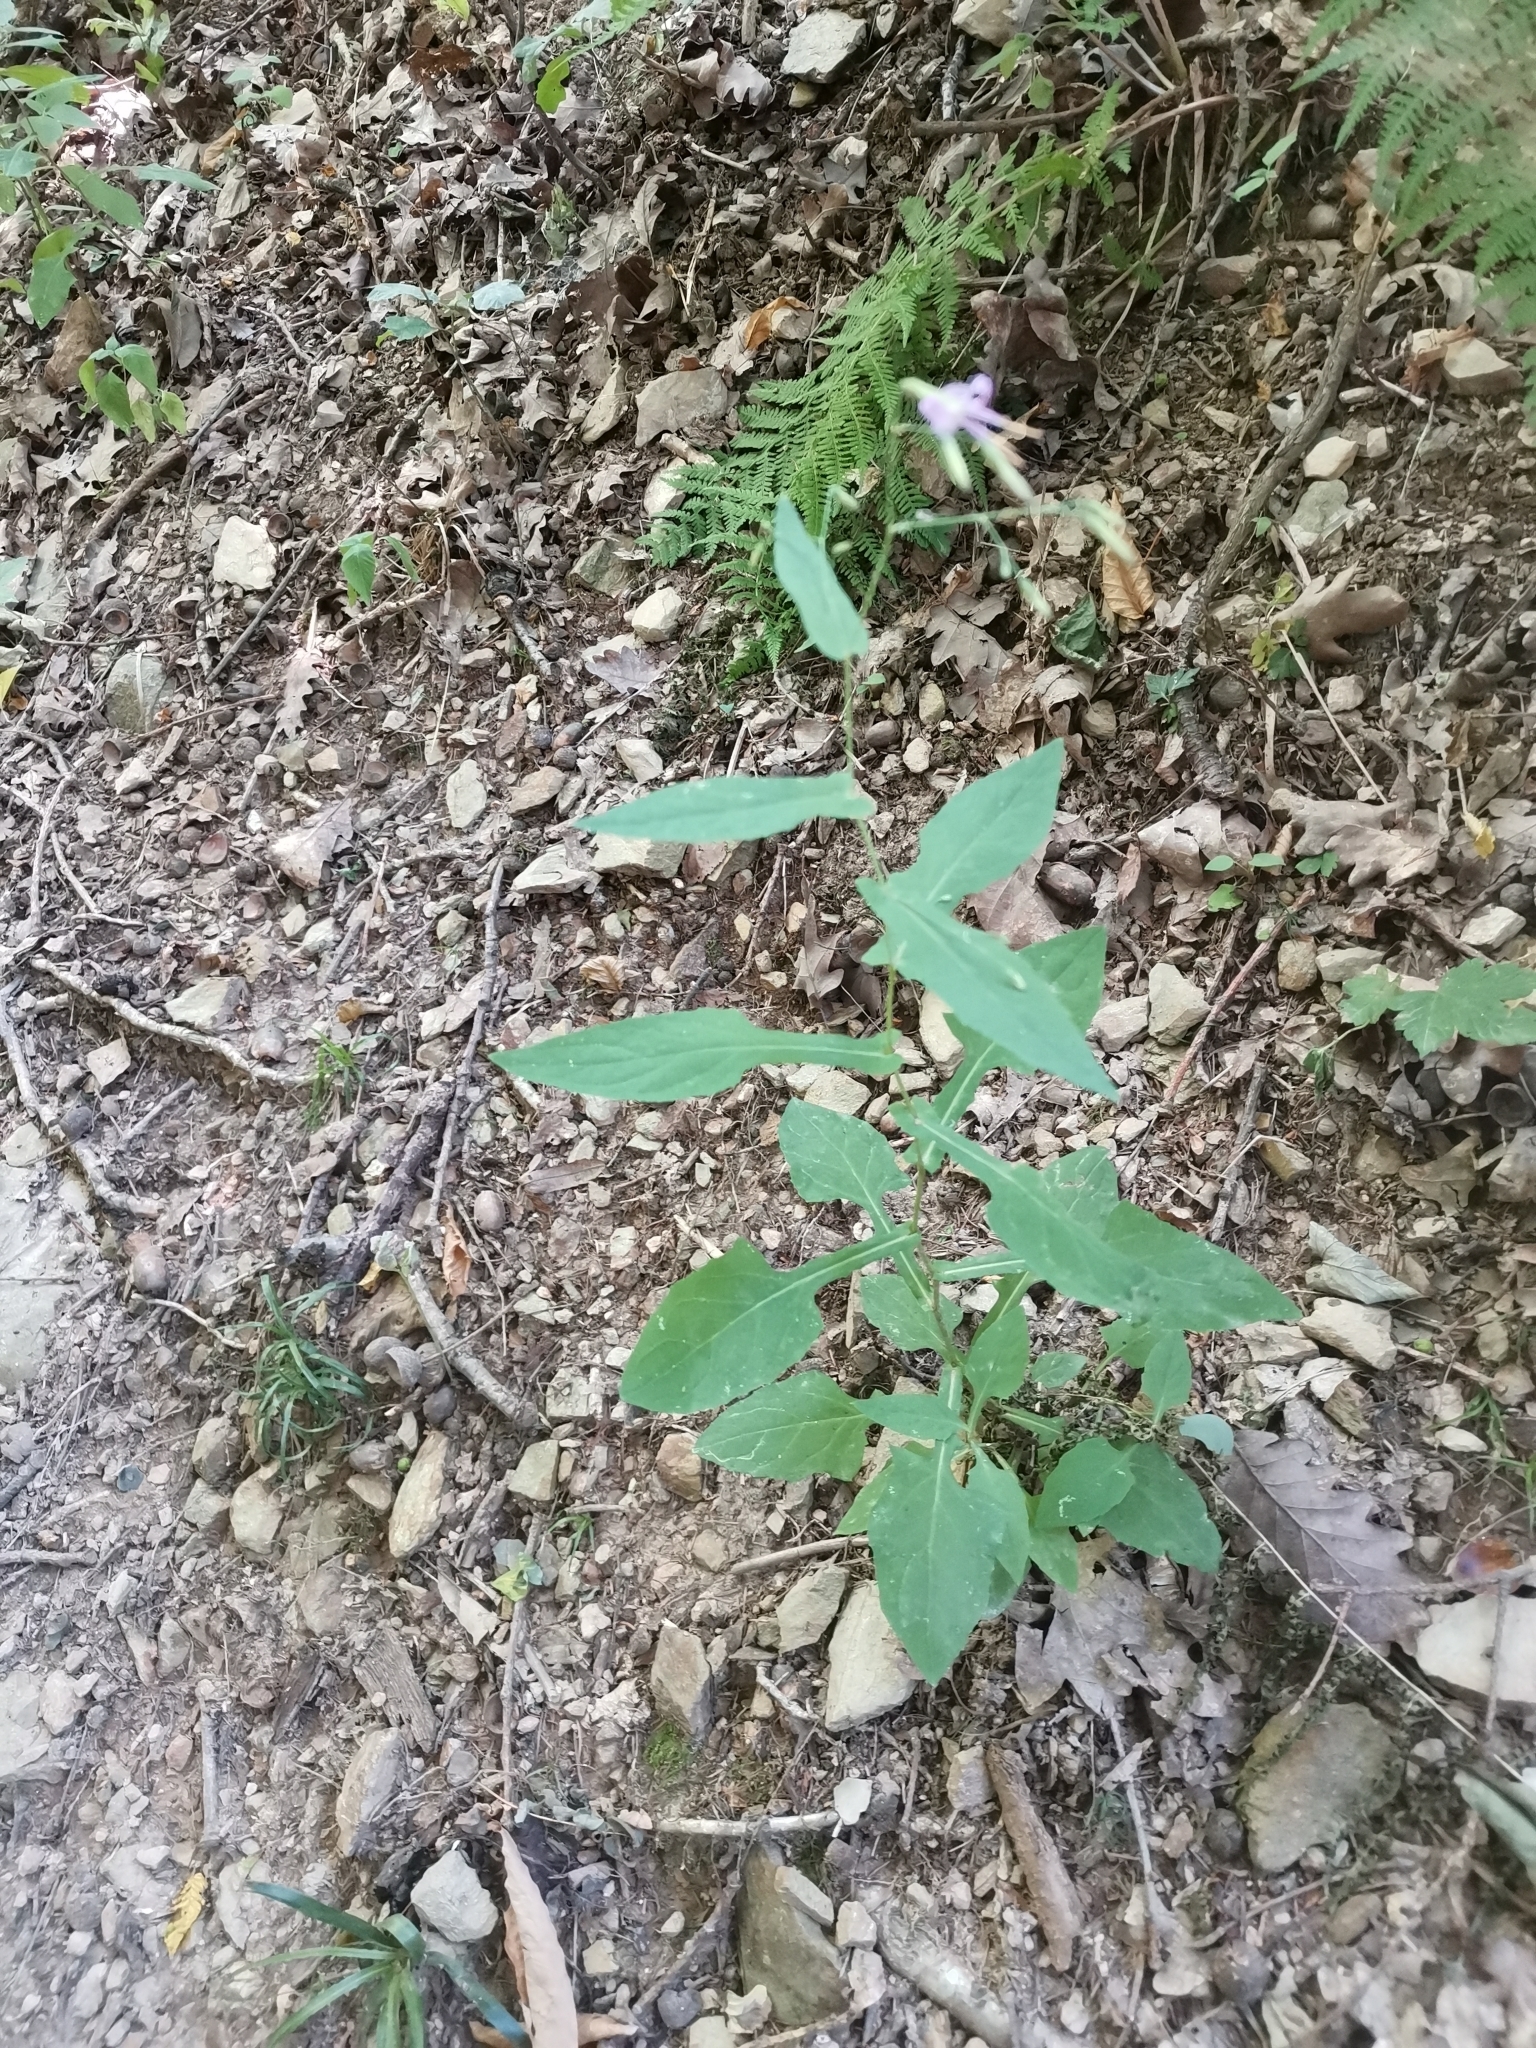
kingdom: Plantae
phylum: Tracheophyta
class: Magnoliopsida
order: Asterales
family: Asteraceae
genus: Prenanthes
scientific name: Prenanthes purpurea
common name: Purple lettuce
